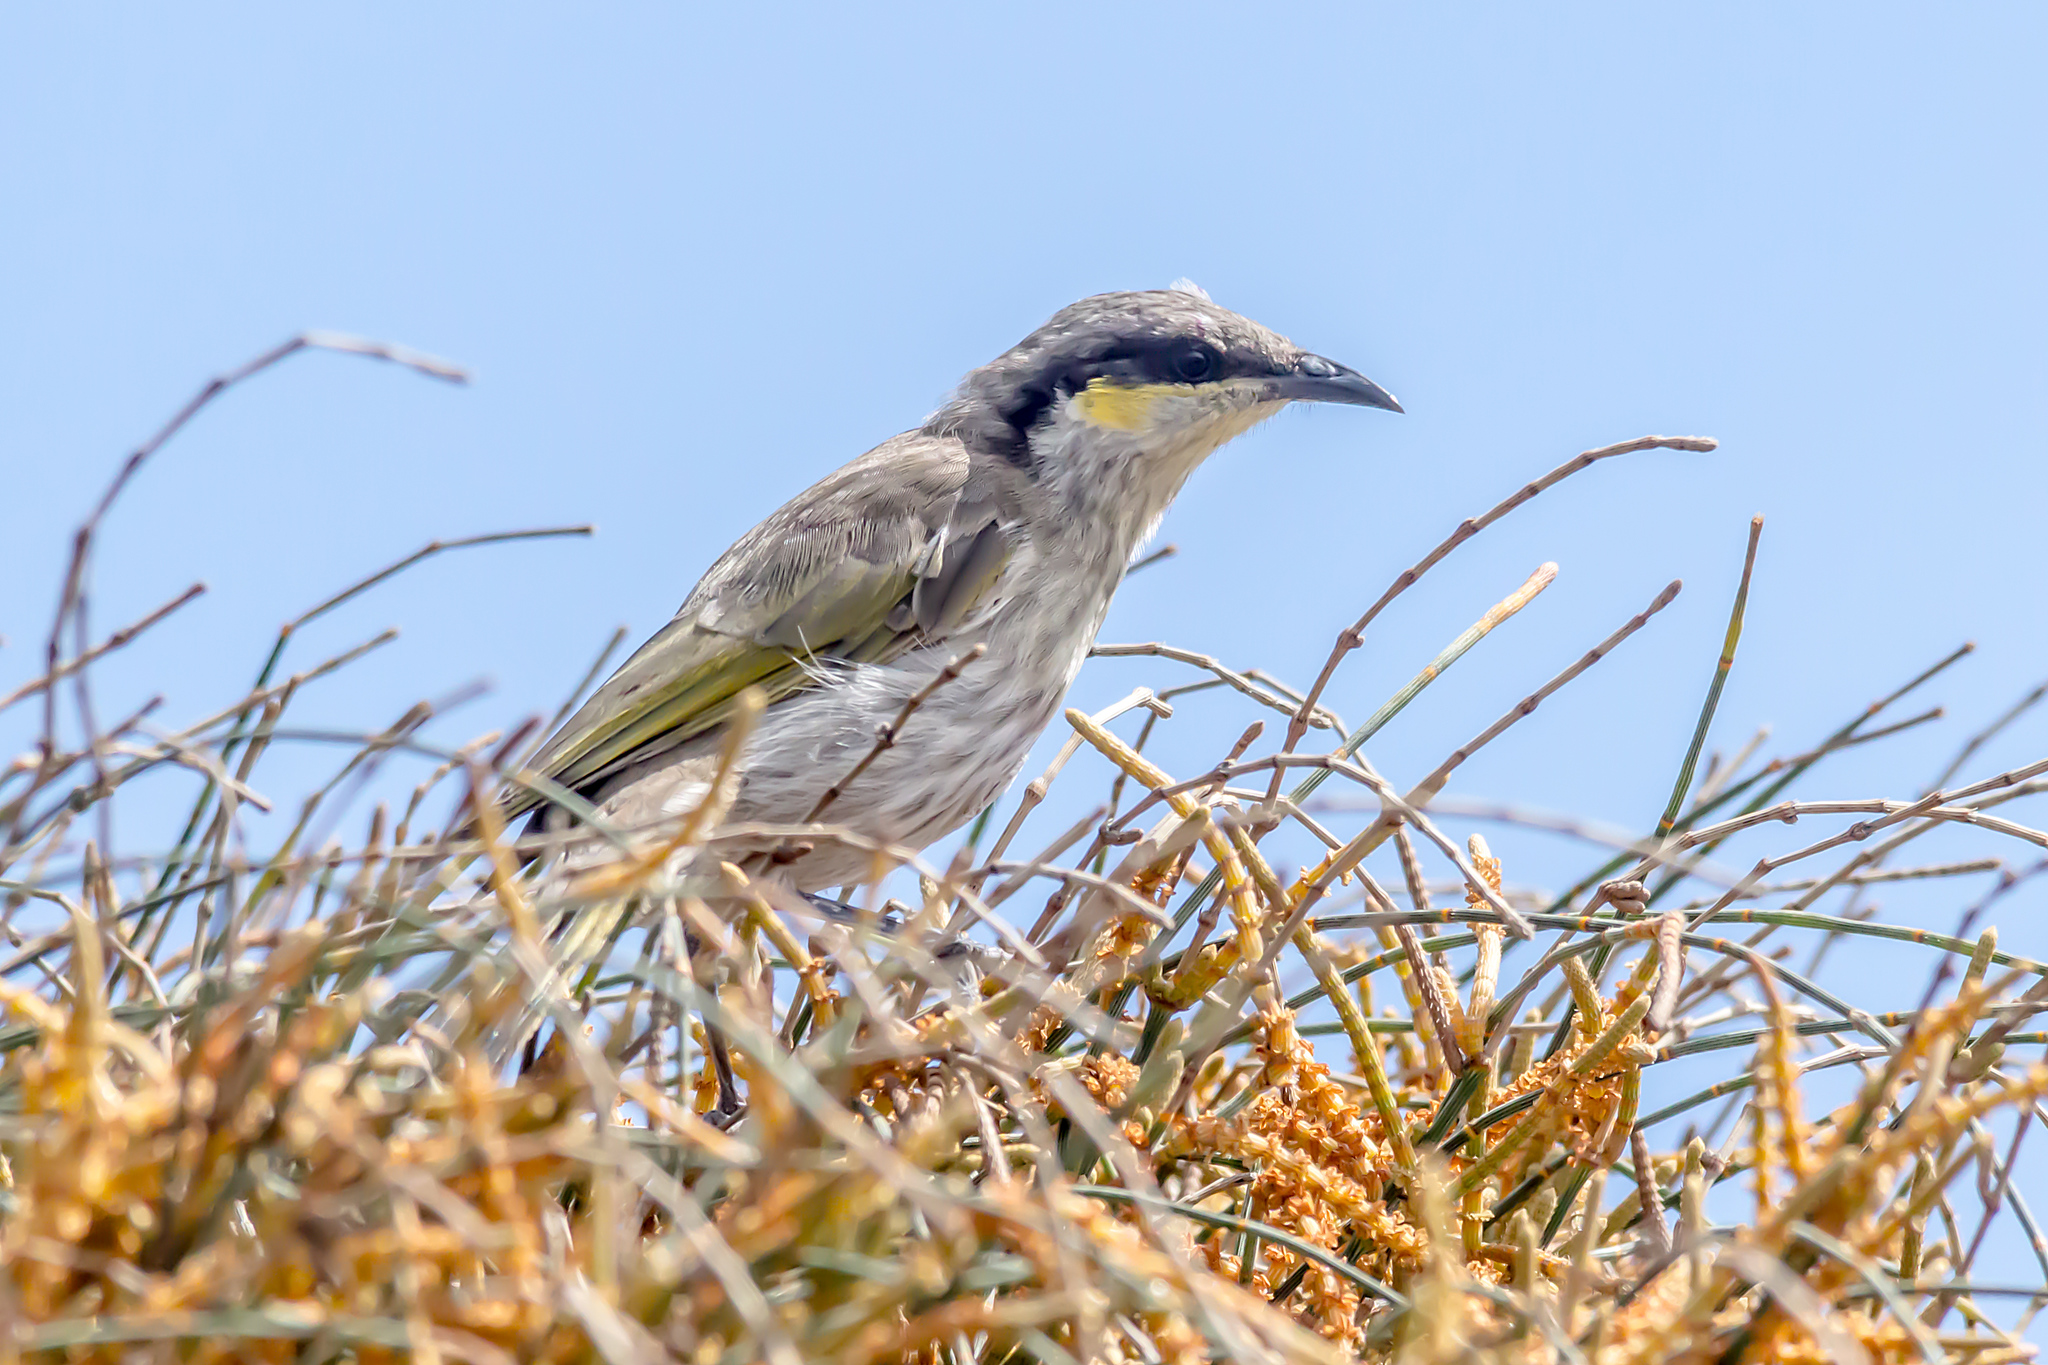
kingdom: Animalia
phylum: Chordata
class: Aves
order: Passeriformes
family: Meliphagidae
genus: Gavicalis
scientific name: Gavicalis virescens
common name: Singing honeyeater
